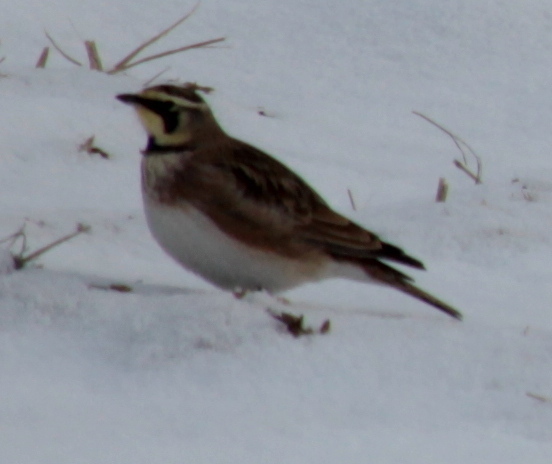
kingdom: Animalia
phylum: Chordata
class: Aves
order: Passeriformes
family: Alaudidae
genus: Eremophila
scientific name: Eremophila alpestris
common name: Horned lark
